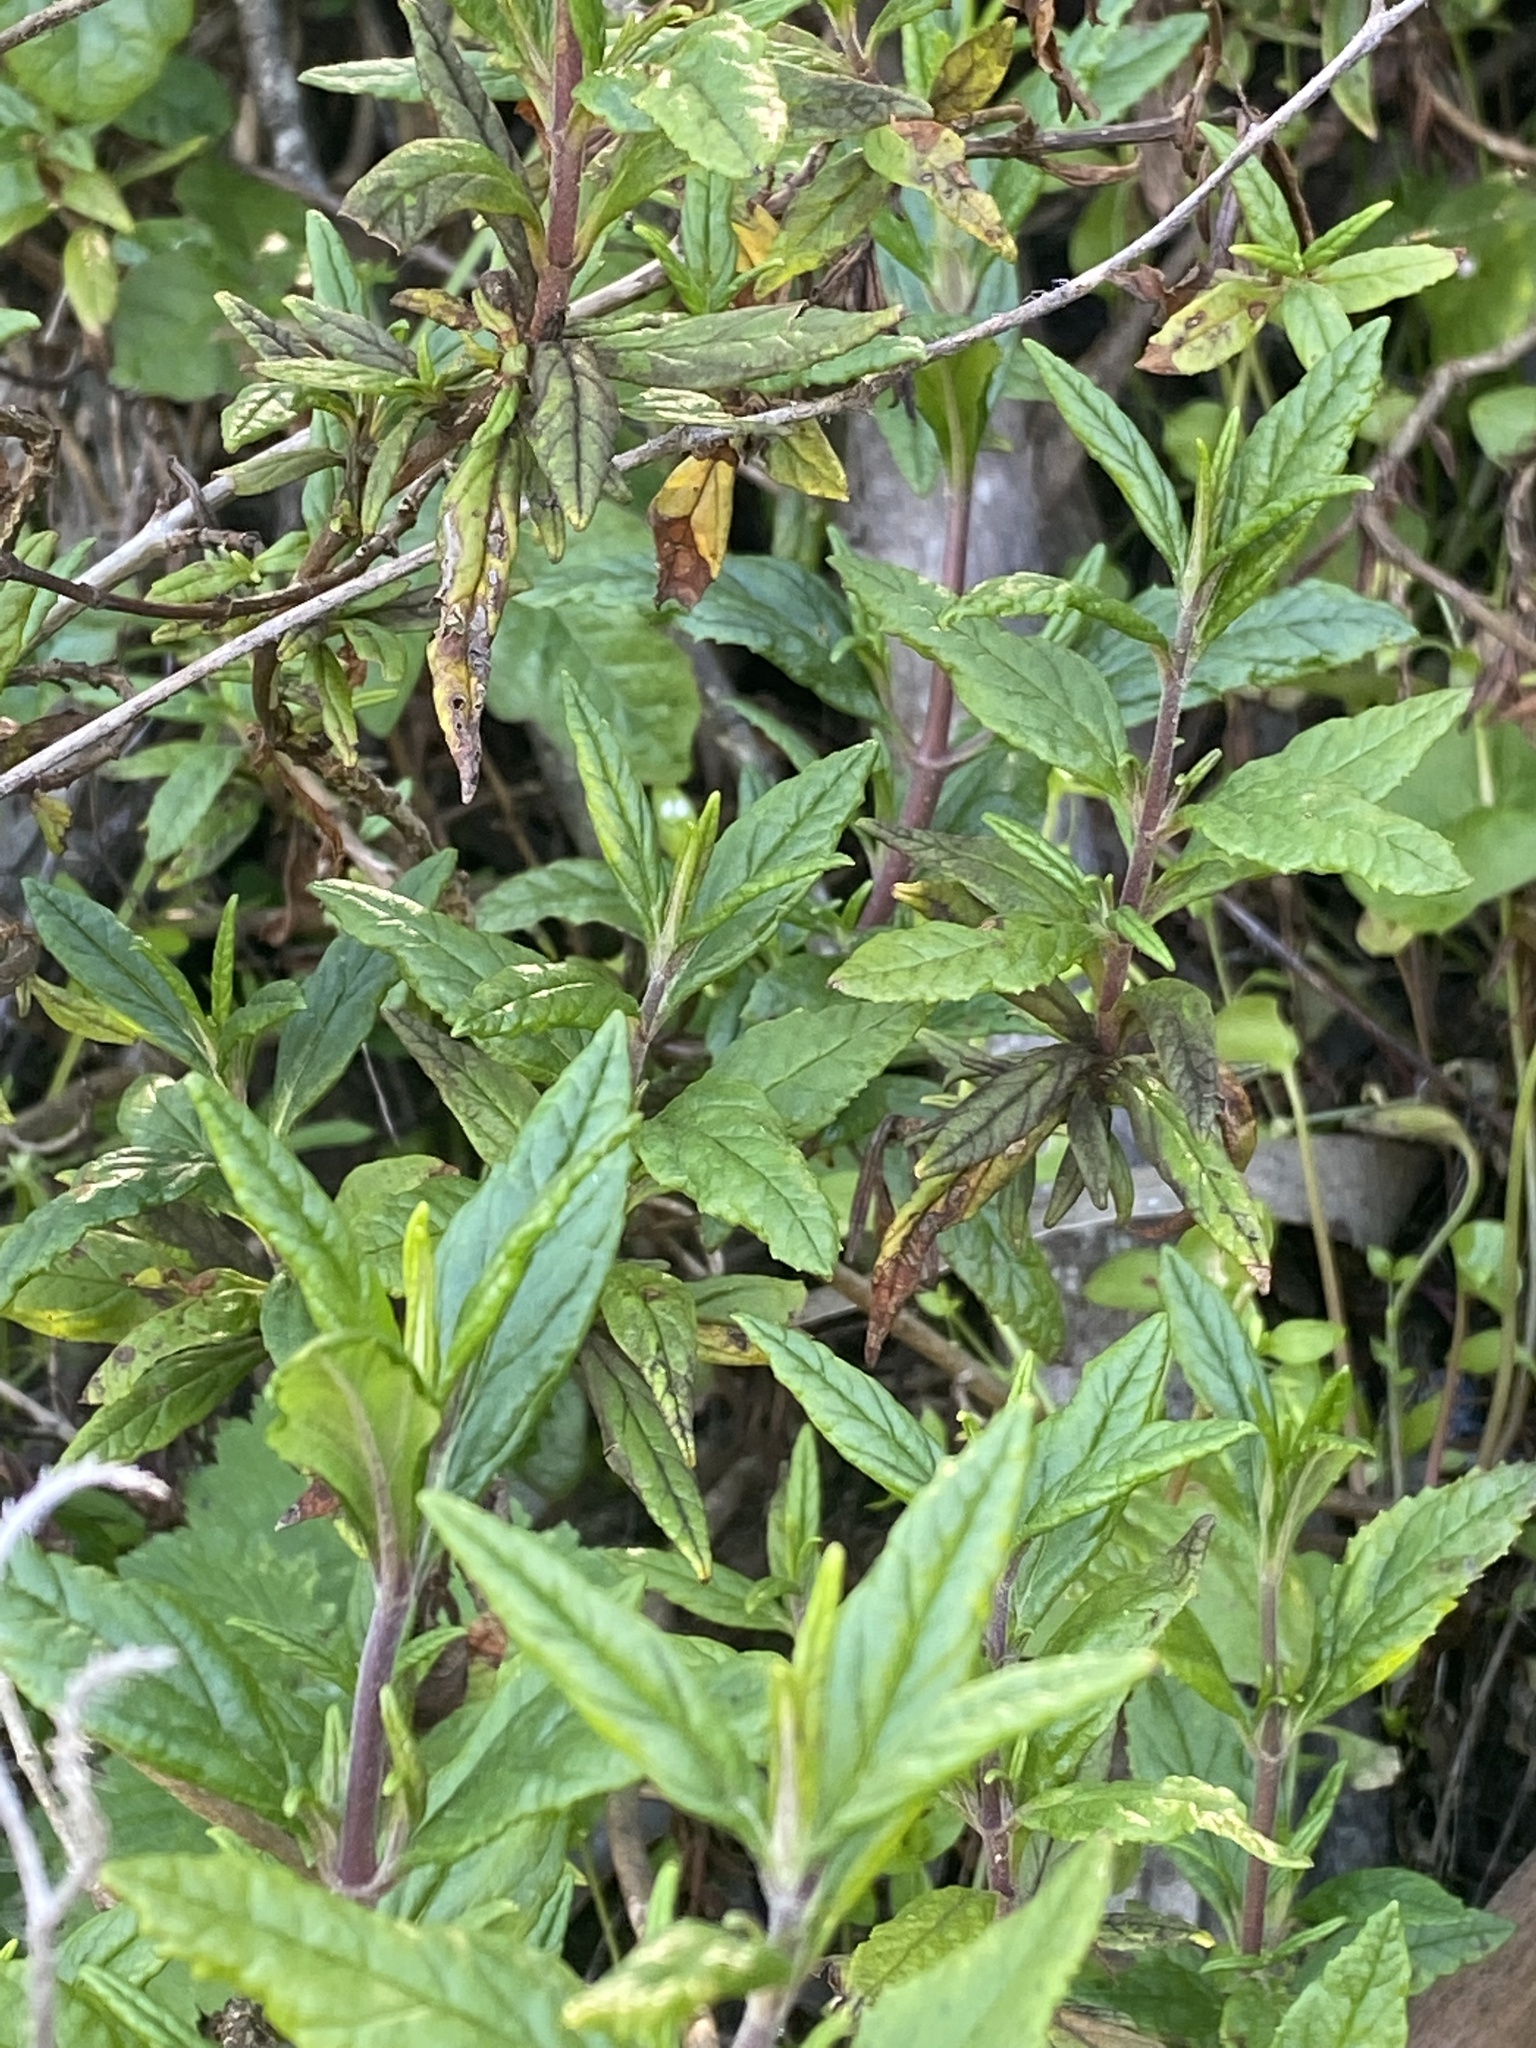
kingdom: Plantae
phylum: Tracheophyta
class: Magnoliopsida
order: Lamiales
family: Phrymaceae
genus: Diplacus
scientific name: Diplacus aurantiacus
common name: Bush monkey-flower
